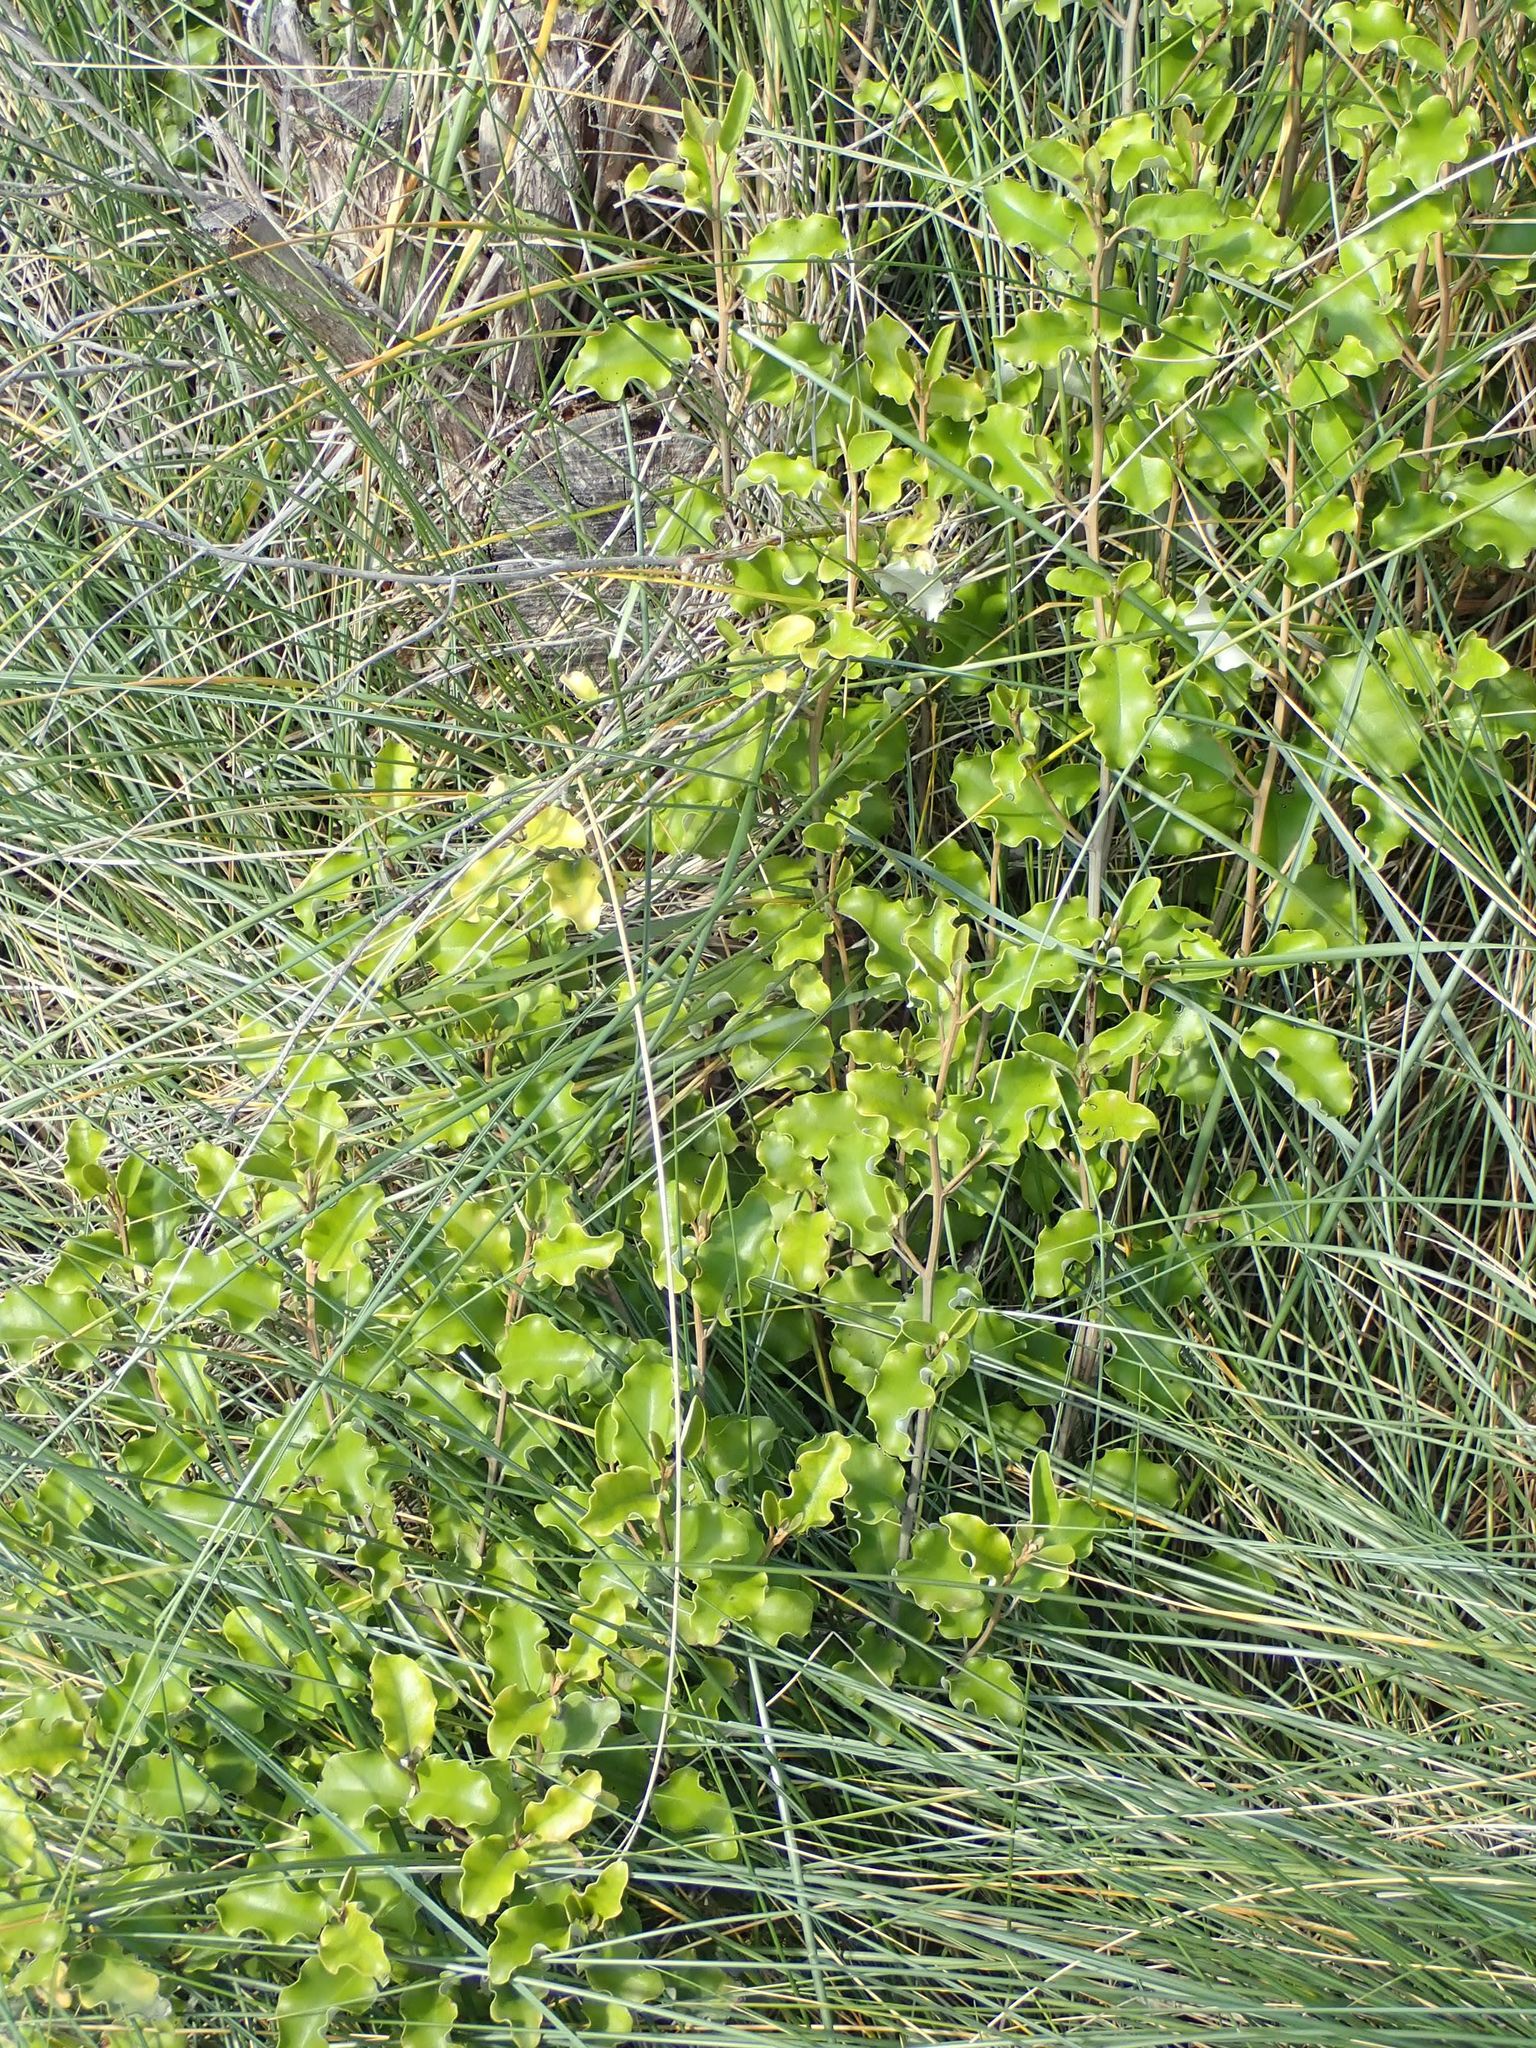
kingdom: Plantae
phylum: Tracheophyta
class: Magnoliopsida
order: Asterales
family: Asteraceae
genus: Olearia
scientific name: Olearia paniculata
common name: Akiraho
